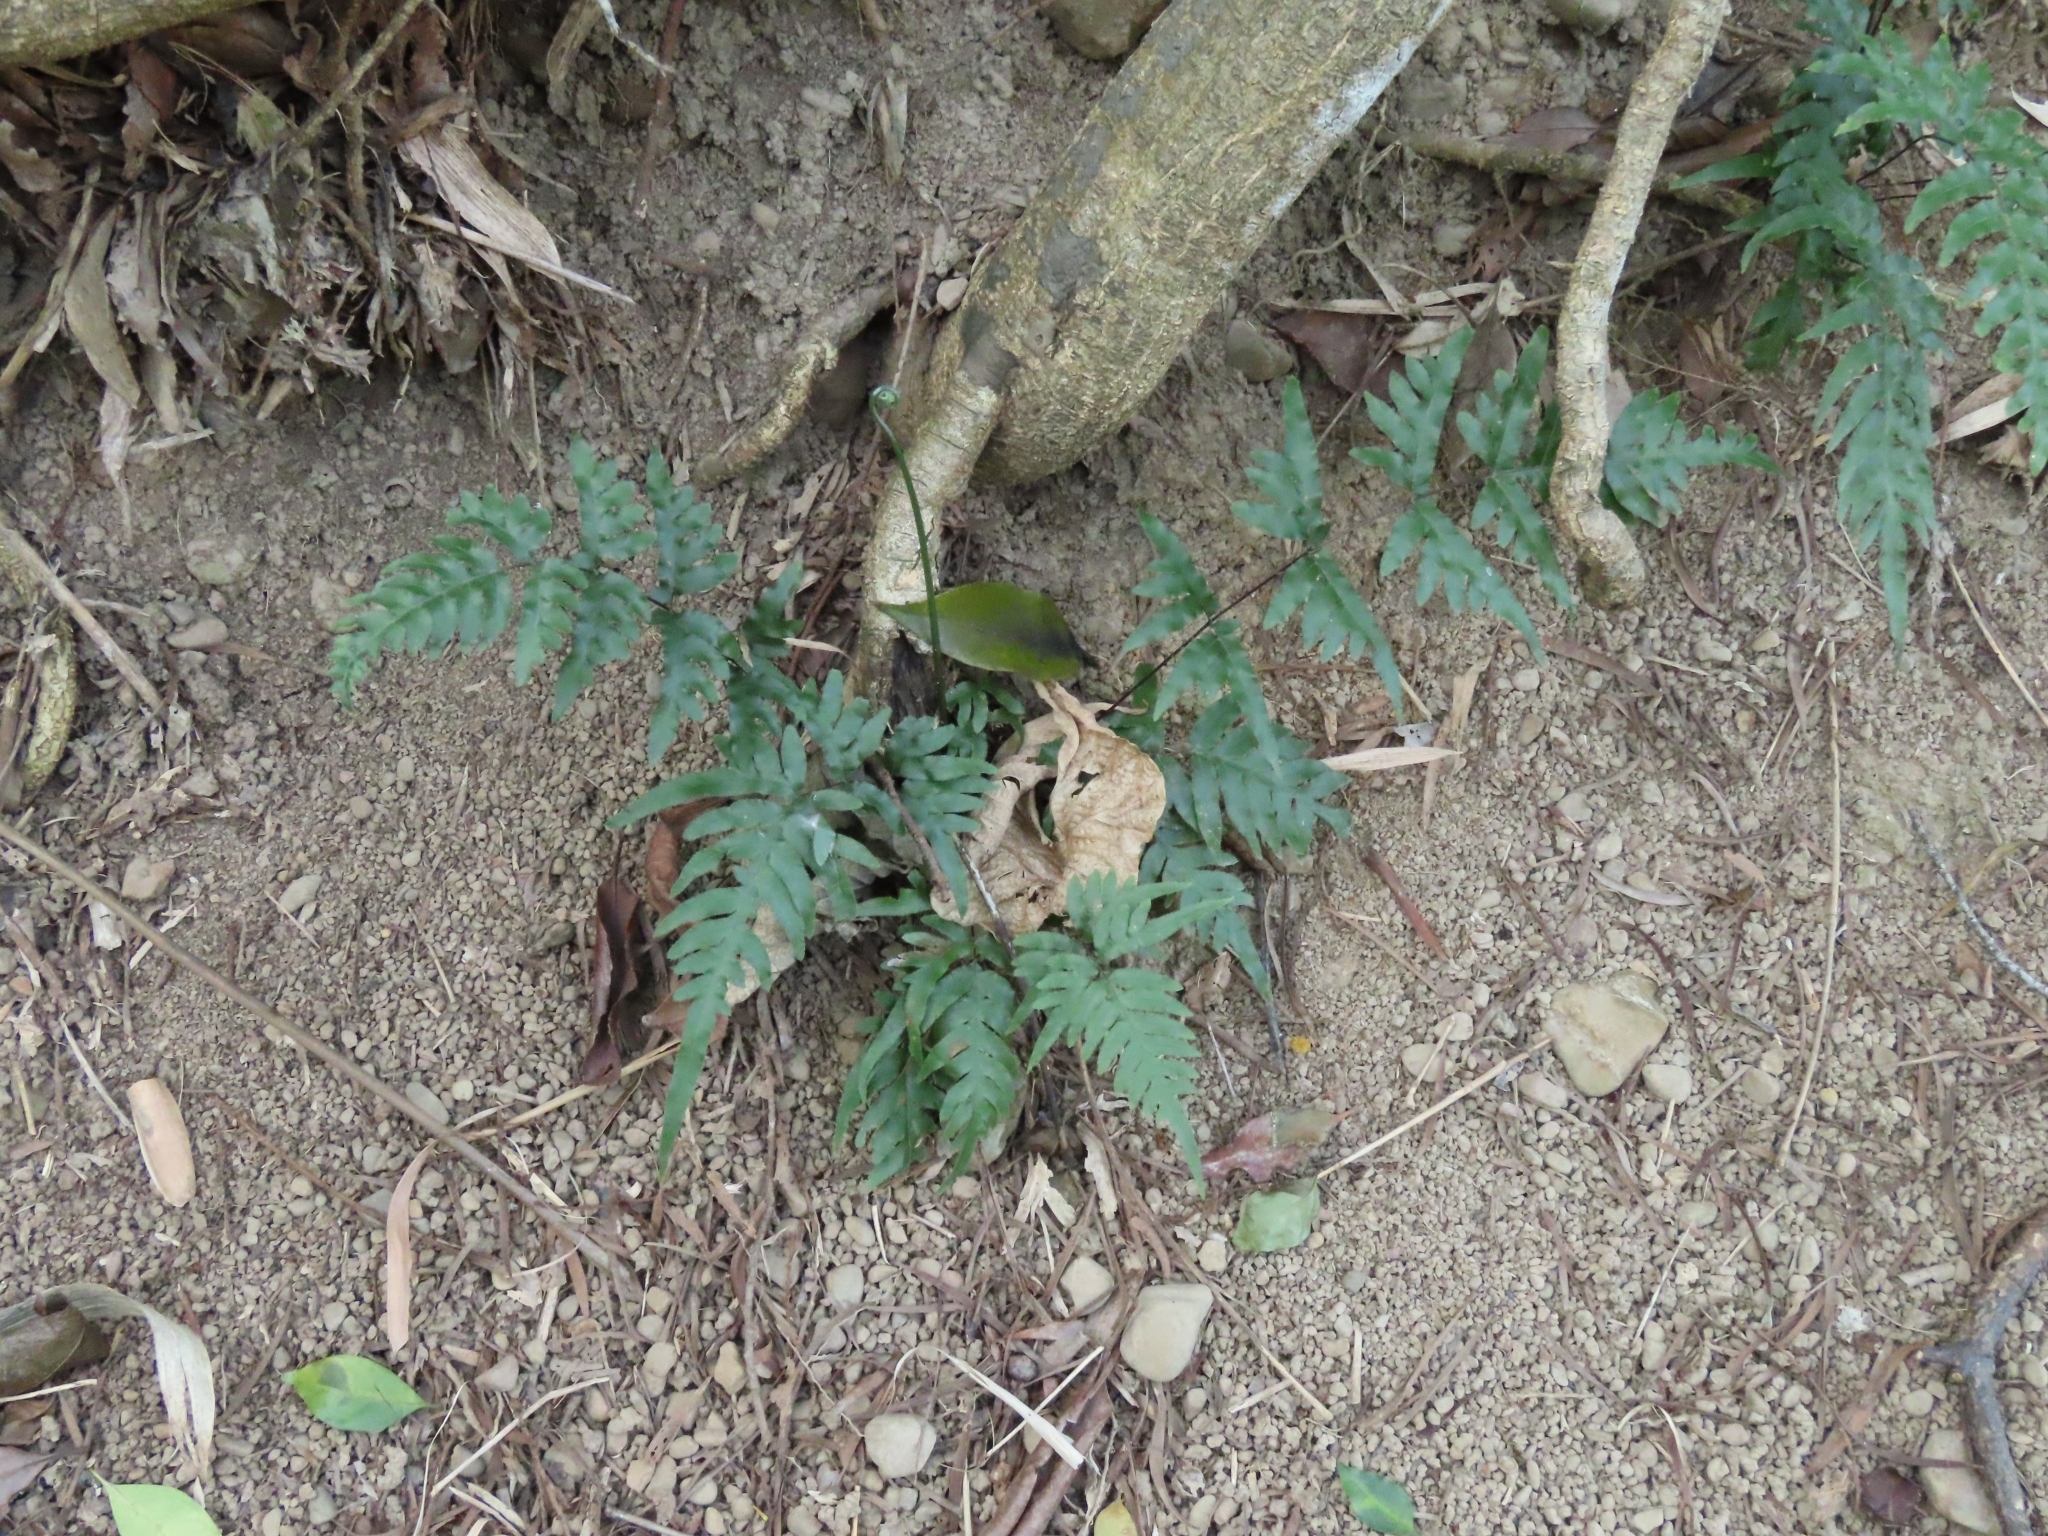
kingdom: Plantae
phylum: Tracheophyta
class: Polypodiopsida
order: Polypodiales
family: Pteridaceae
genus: Pteris
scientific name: Pteris semipinnata
